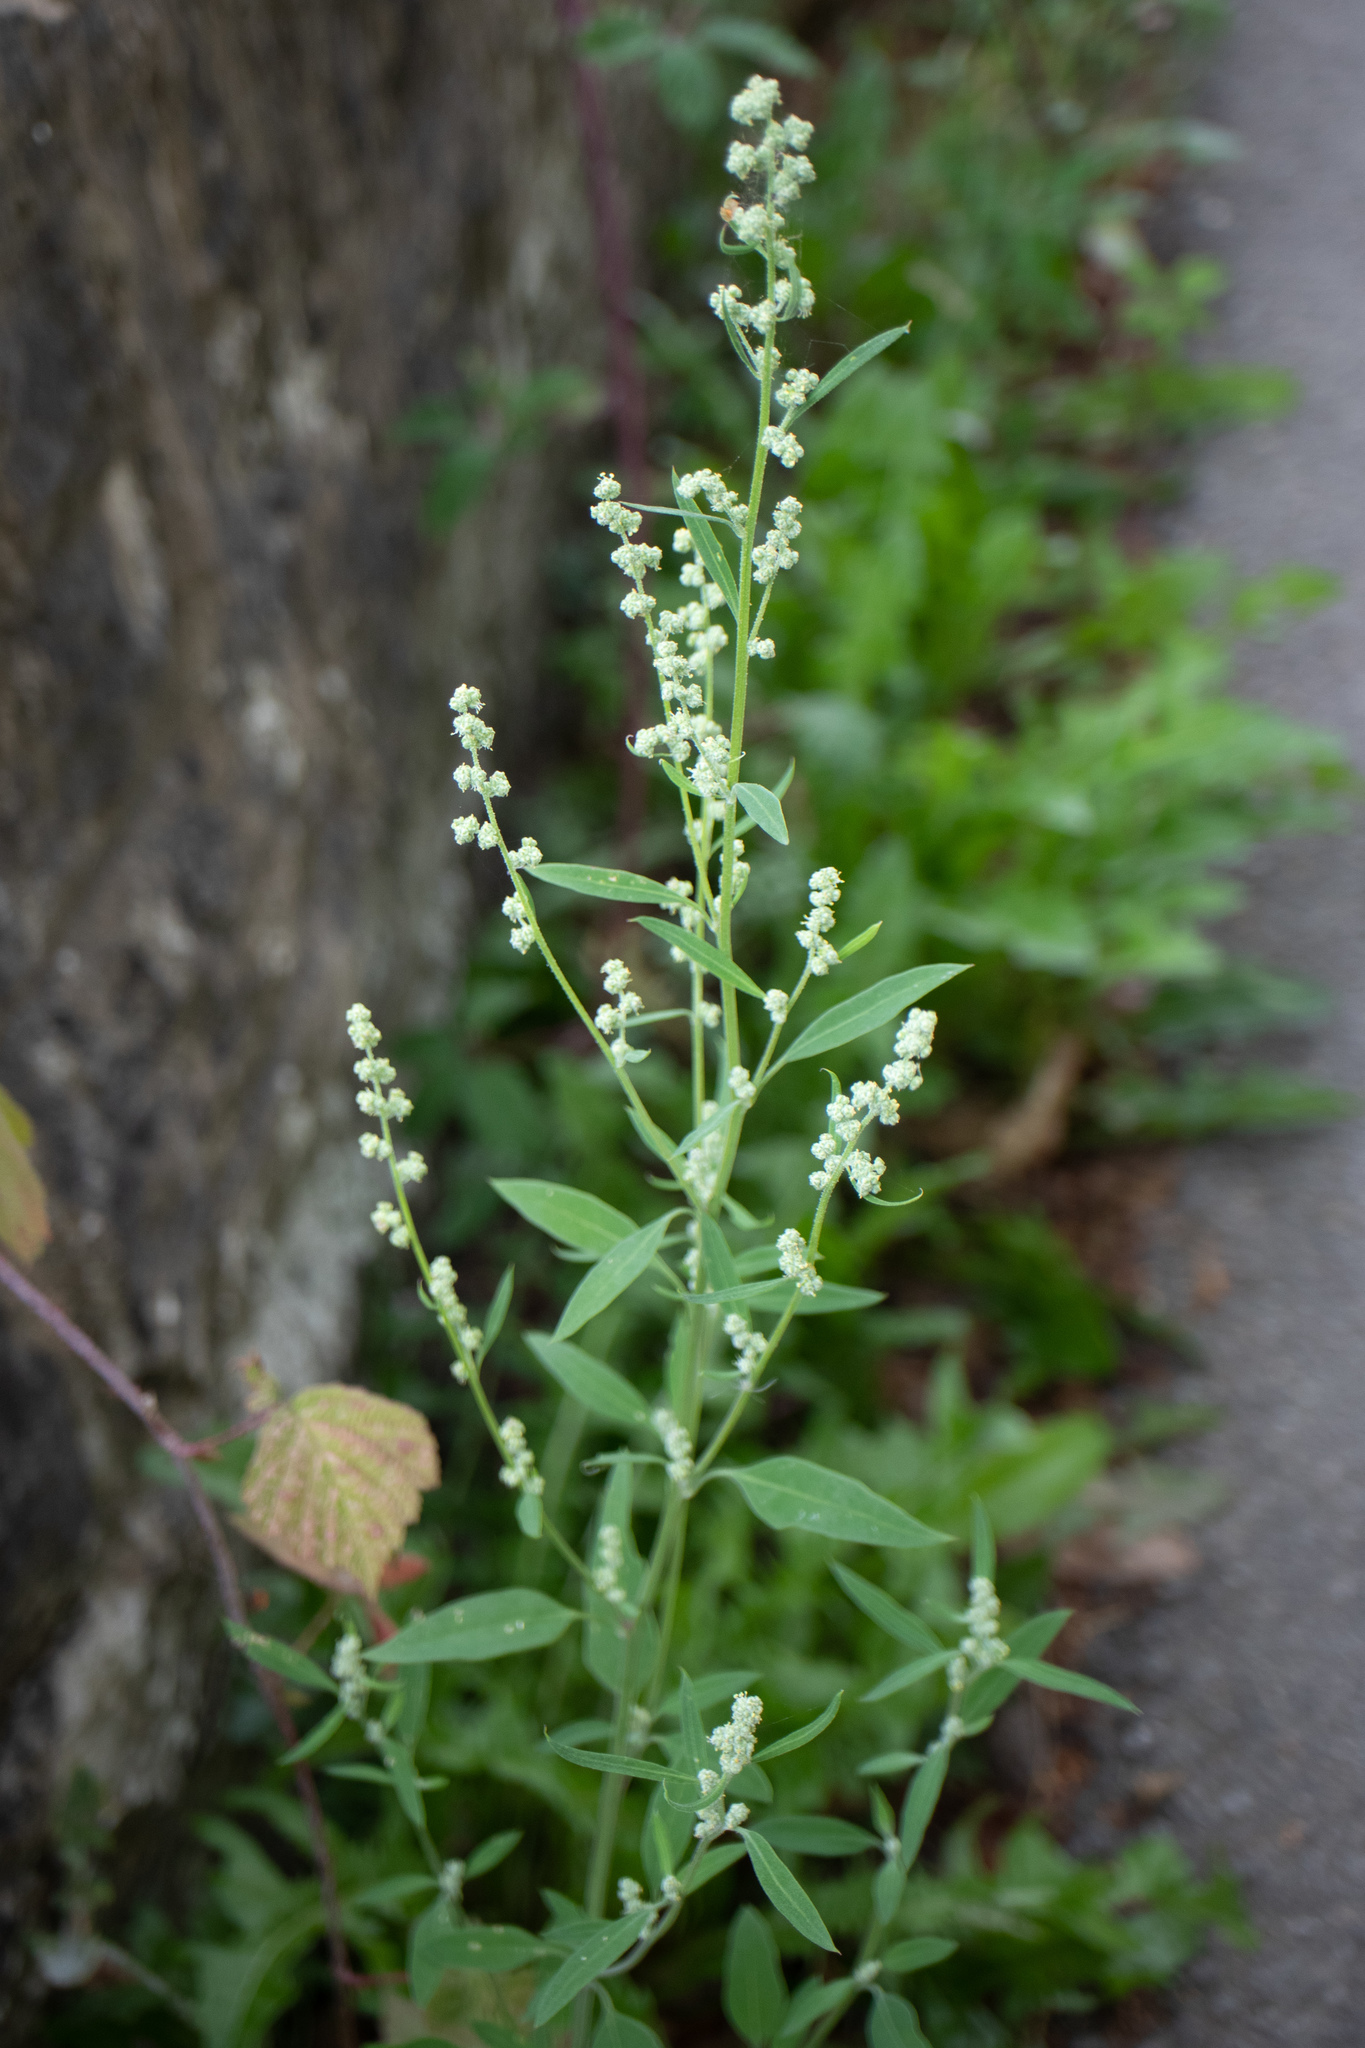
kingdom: Plantae
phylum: Tracheophyta
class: Magnoliopsida
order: Caryophyllales
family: Amaranthaceae
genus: Chenopodium
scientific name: Chenopodium album
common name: Fat-hen
